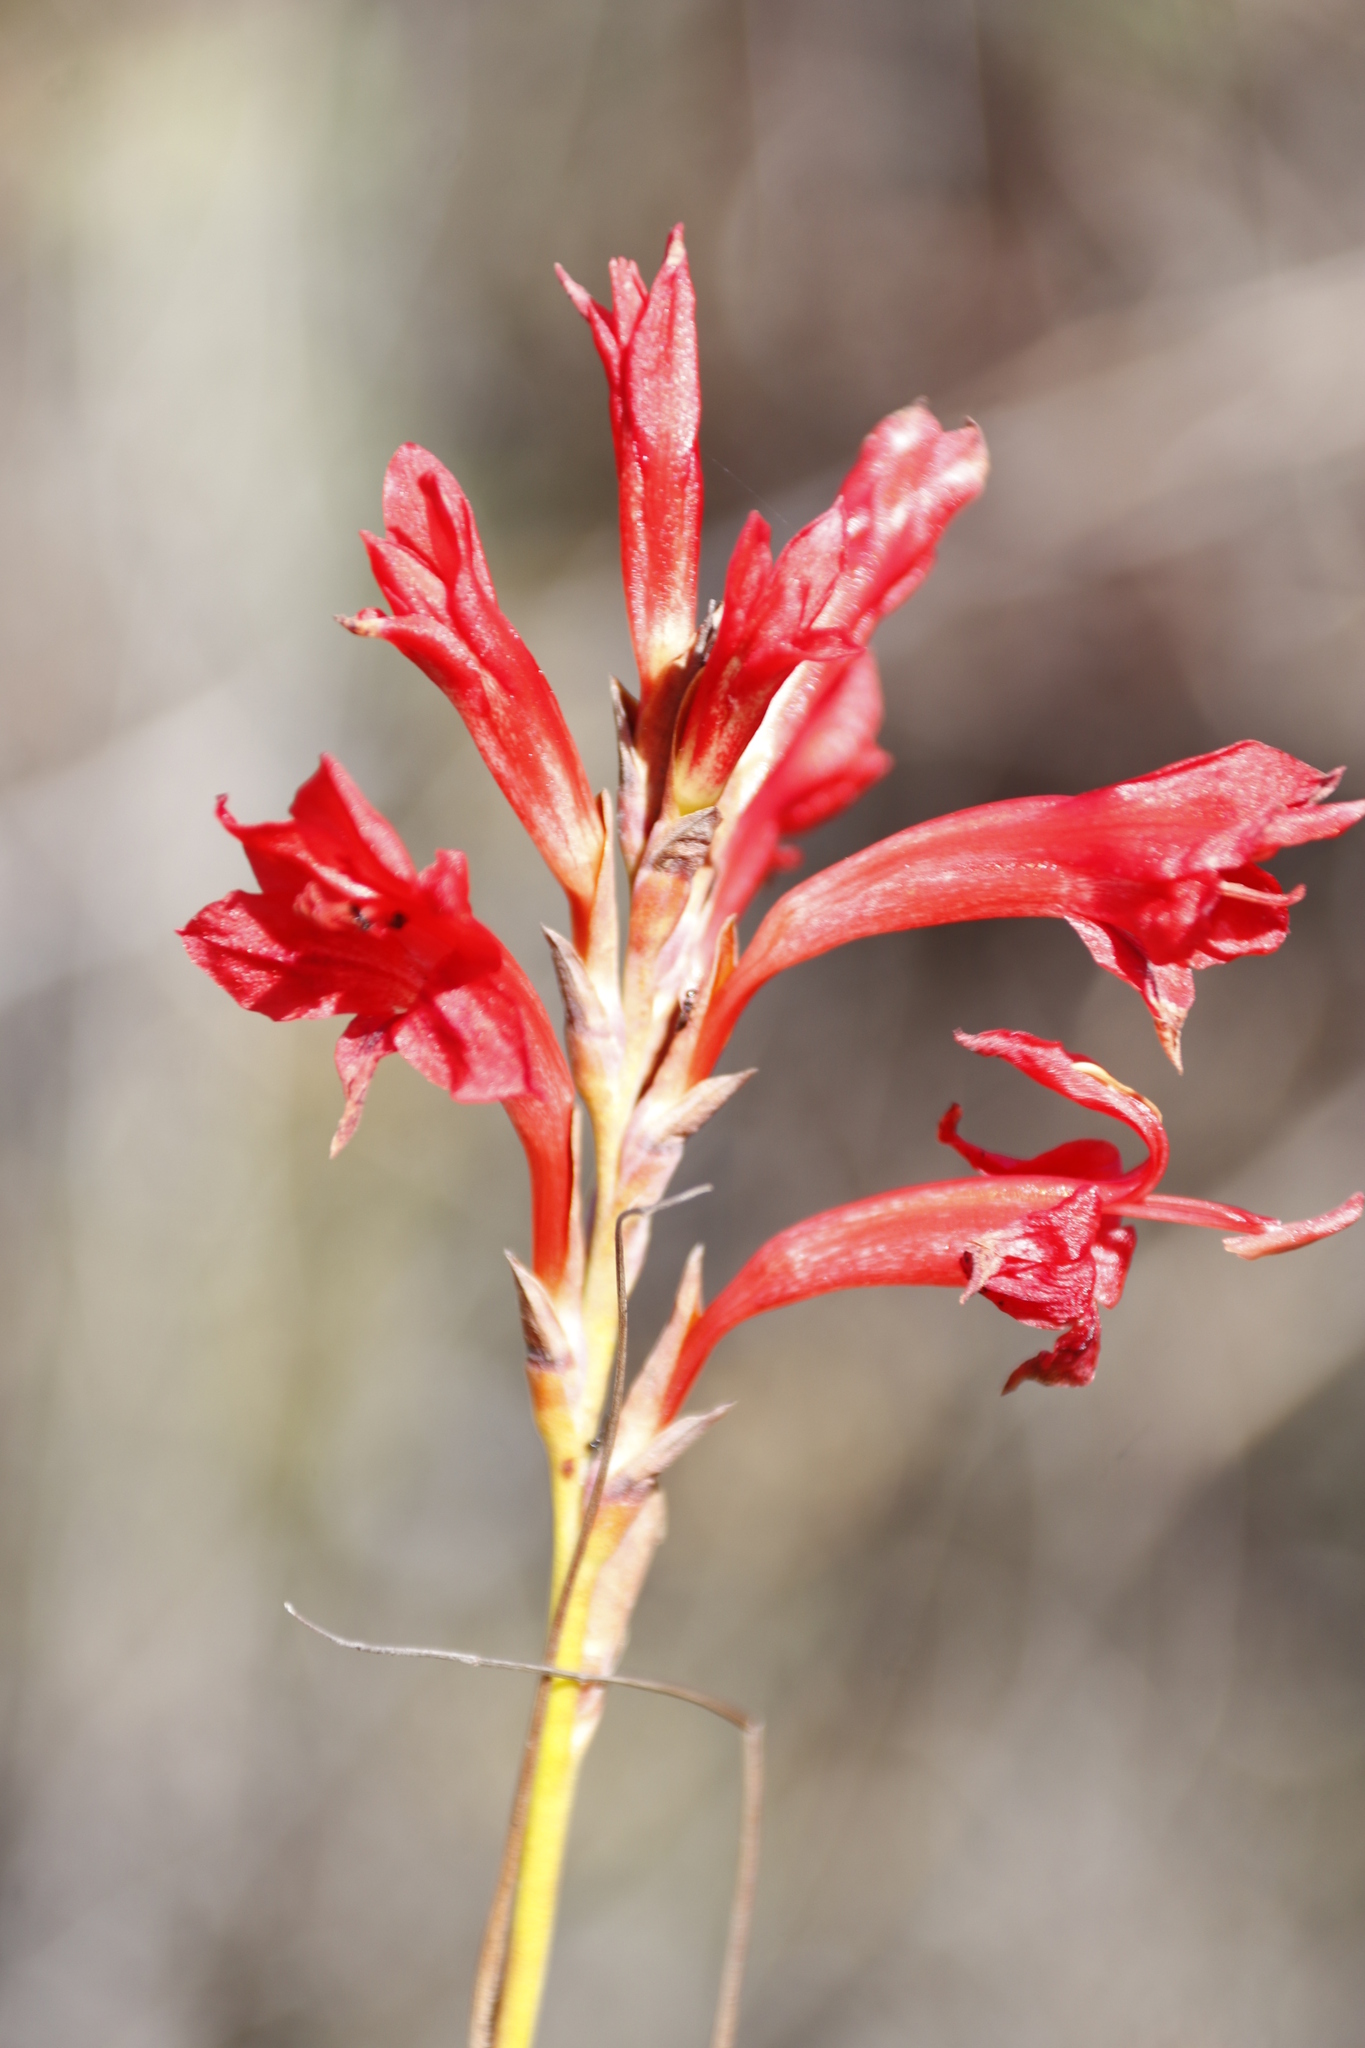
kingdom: Plantae
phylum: Tracheophyta
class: Liliopsida
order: Asparagales
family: Iridaceae
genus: Tritoniopsis
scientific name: Tritoniopsis triticea
